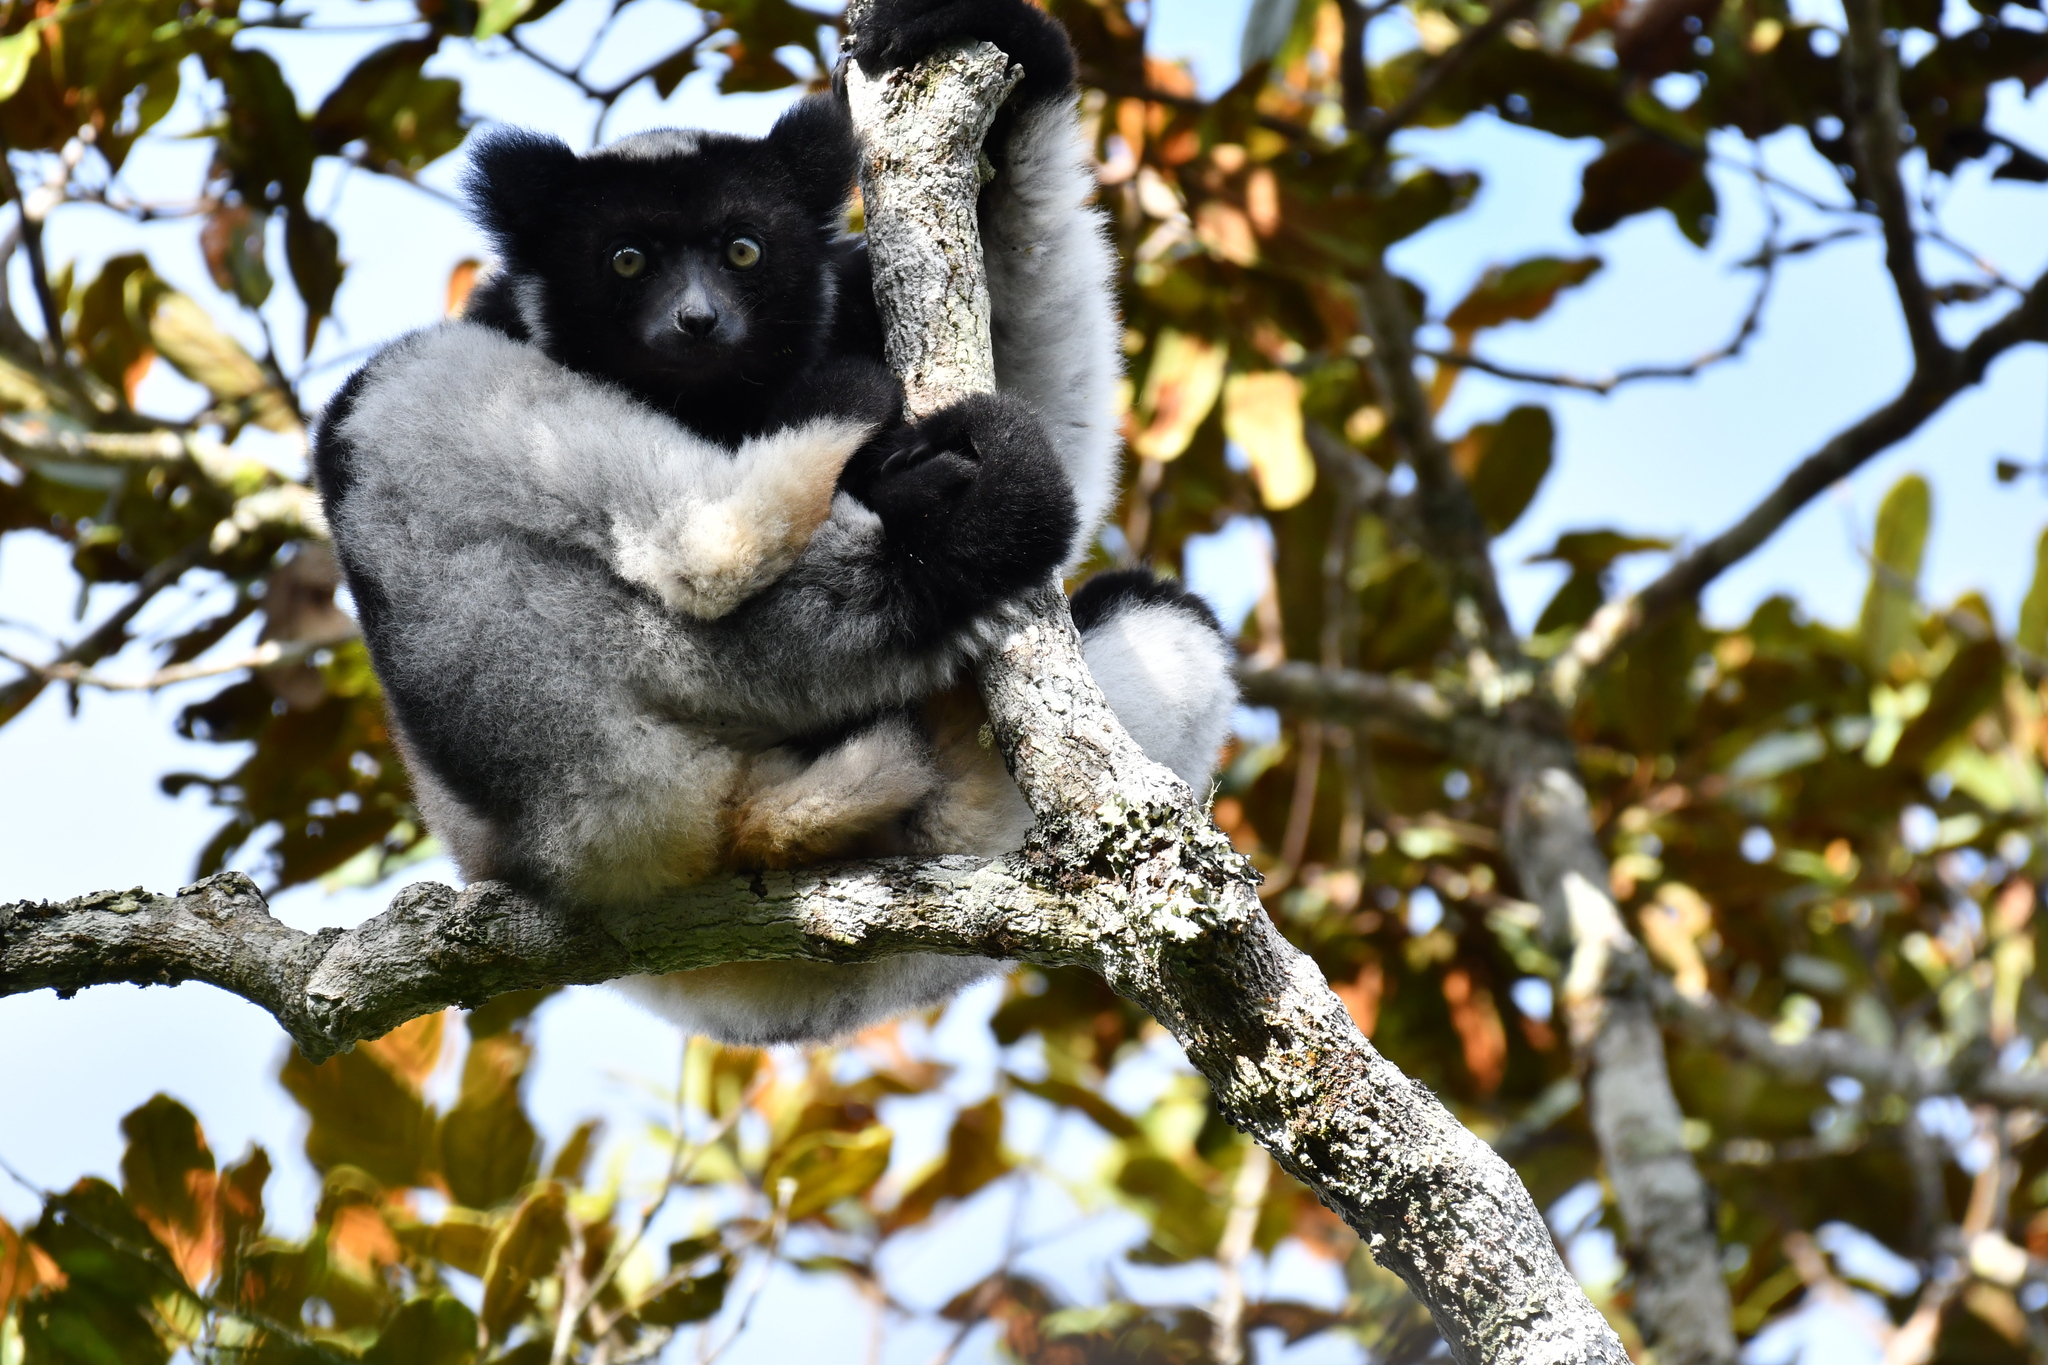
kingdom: Animalia
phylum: Chordata
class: Mammalia
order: Primates
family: Indriidae
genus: Indri
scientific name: Indri indri
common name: Indri
